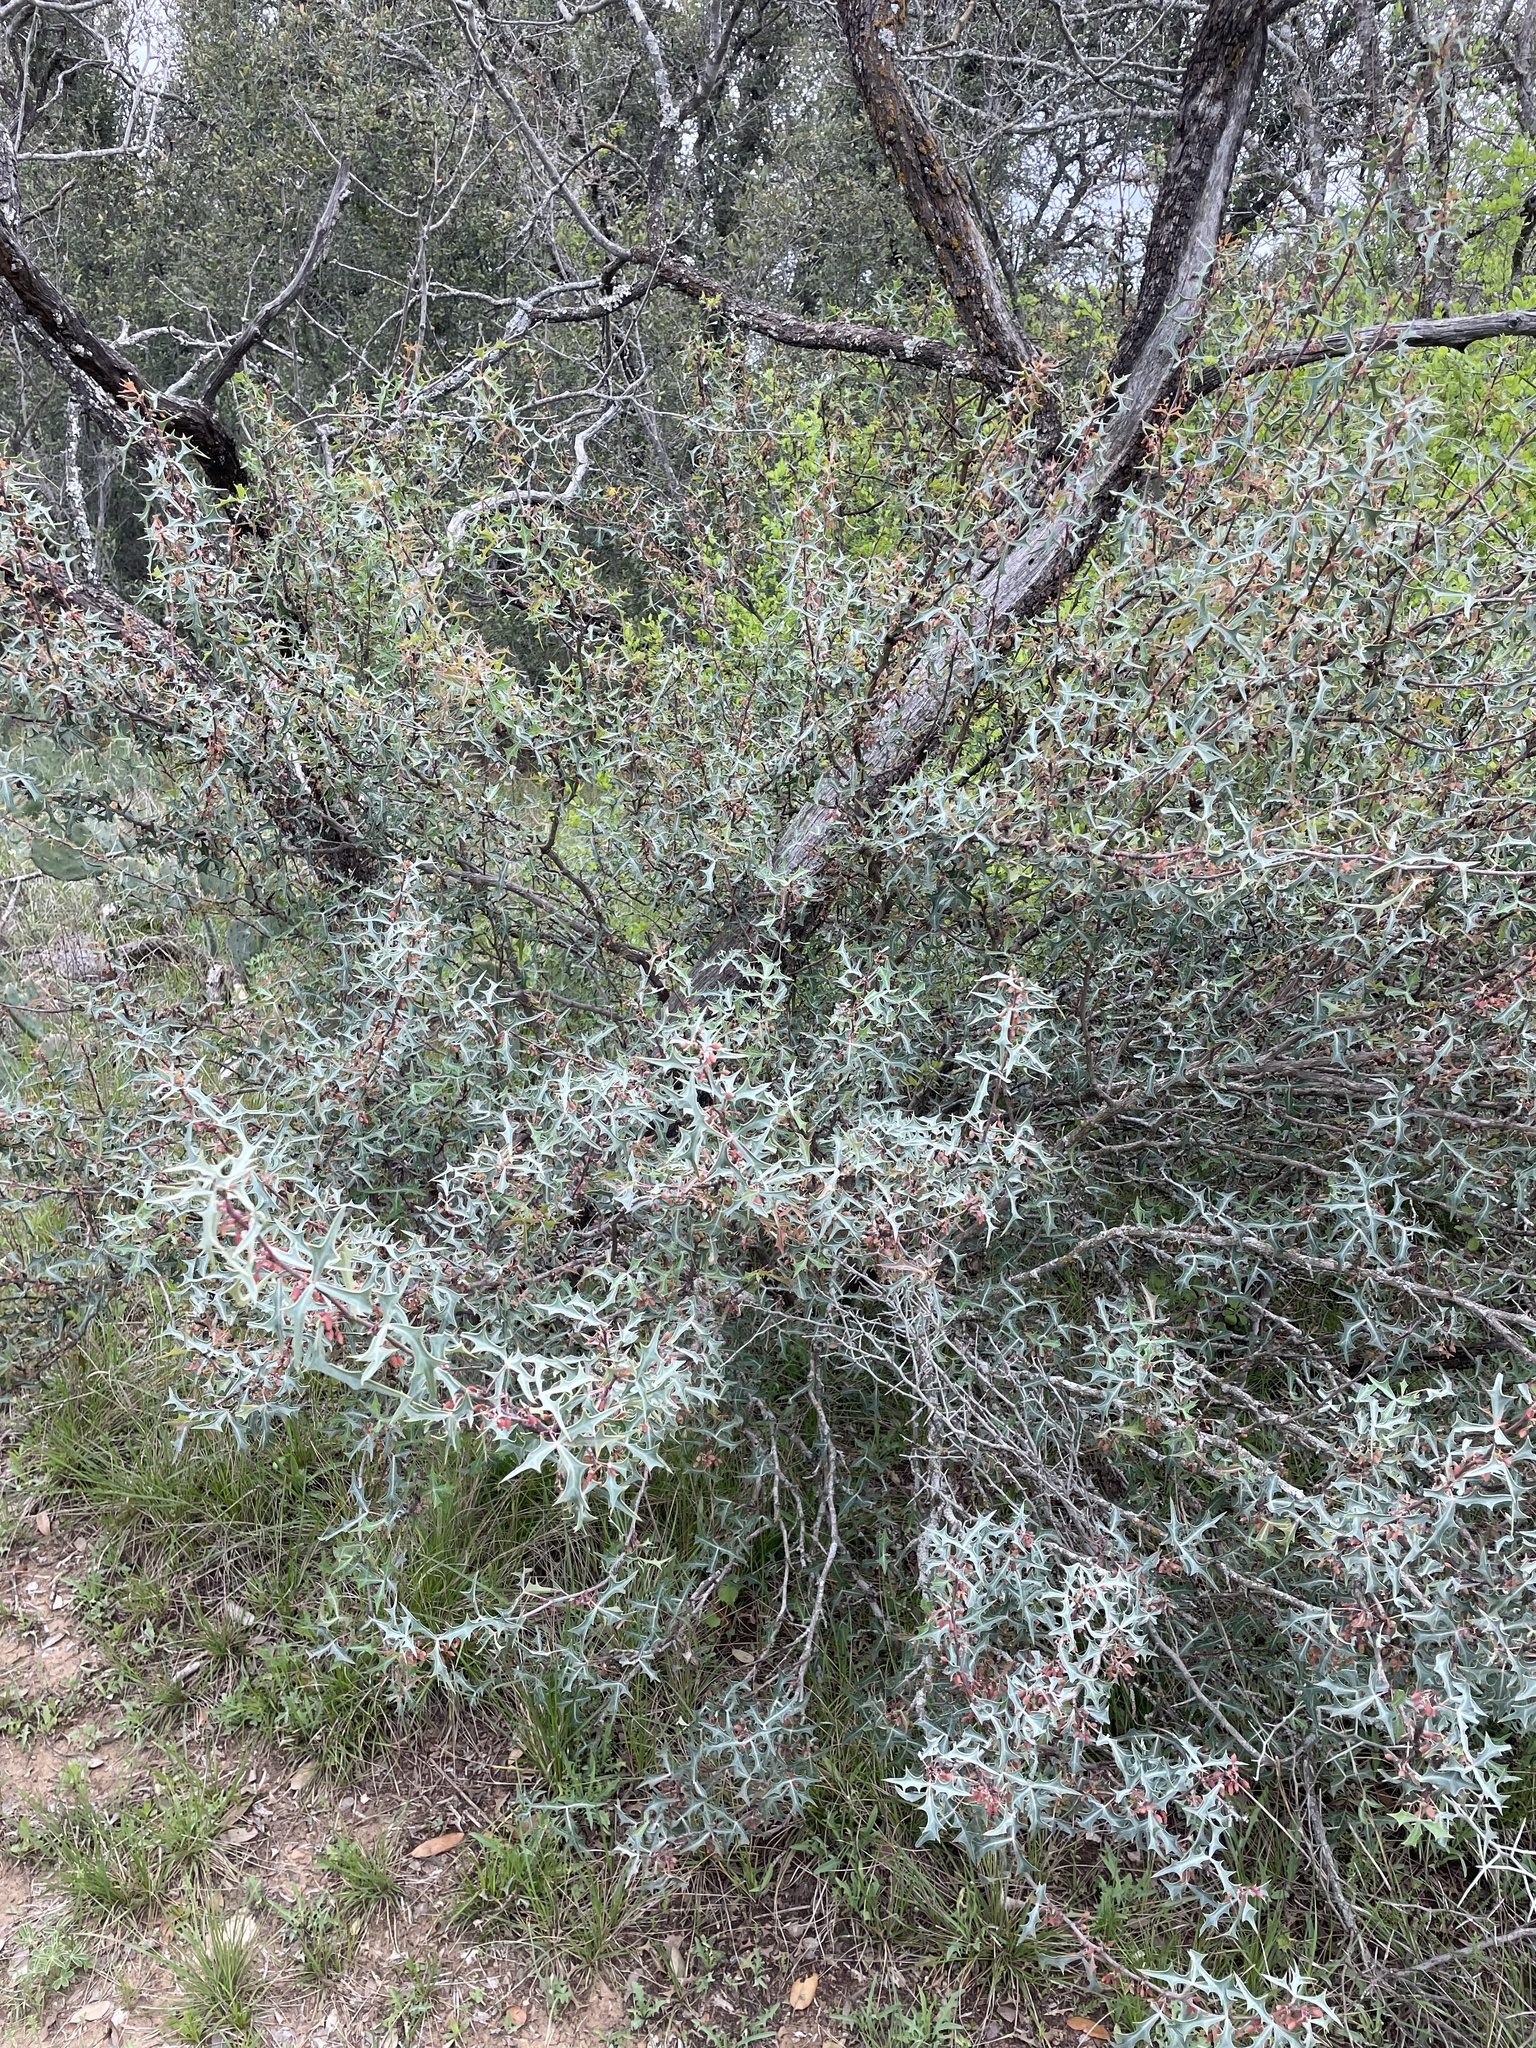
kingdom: Plantae
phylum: Tracheophyta
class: Magnoliopsida
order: Ranunculales
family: Berberidaceae
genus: Alloberberis
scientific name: Alloberberis trifoliolata
